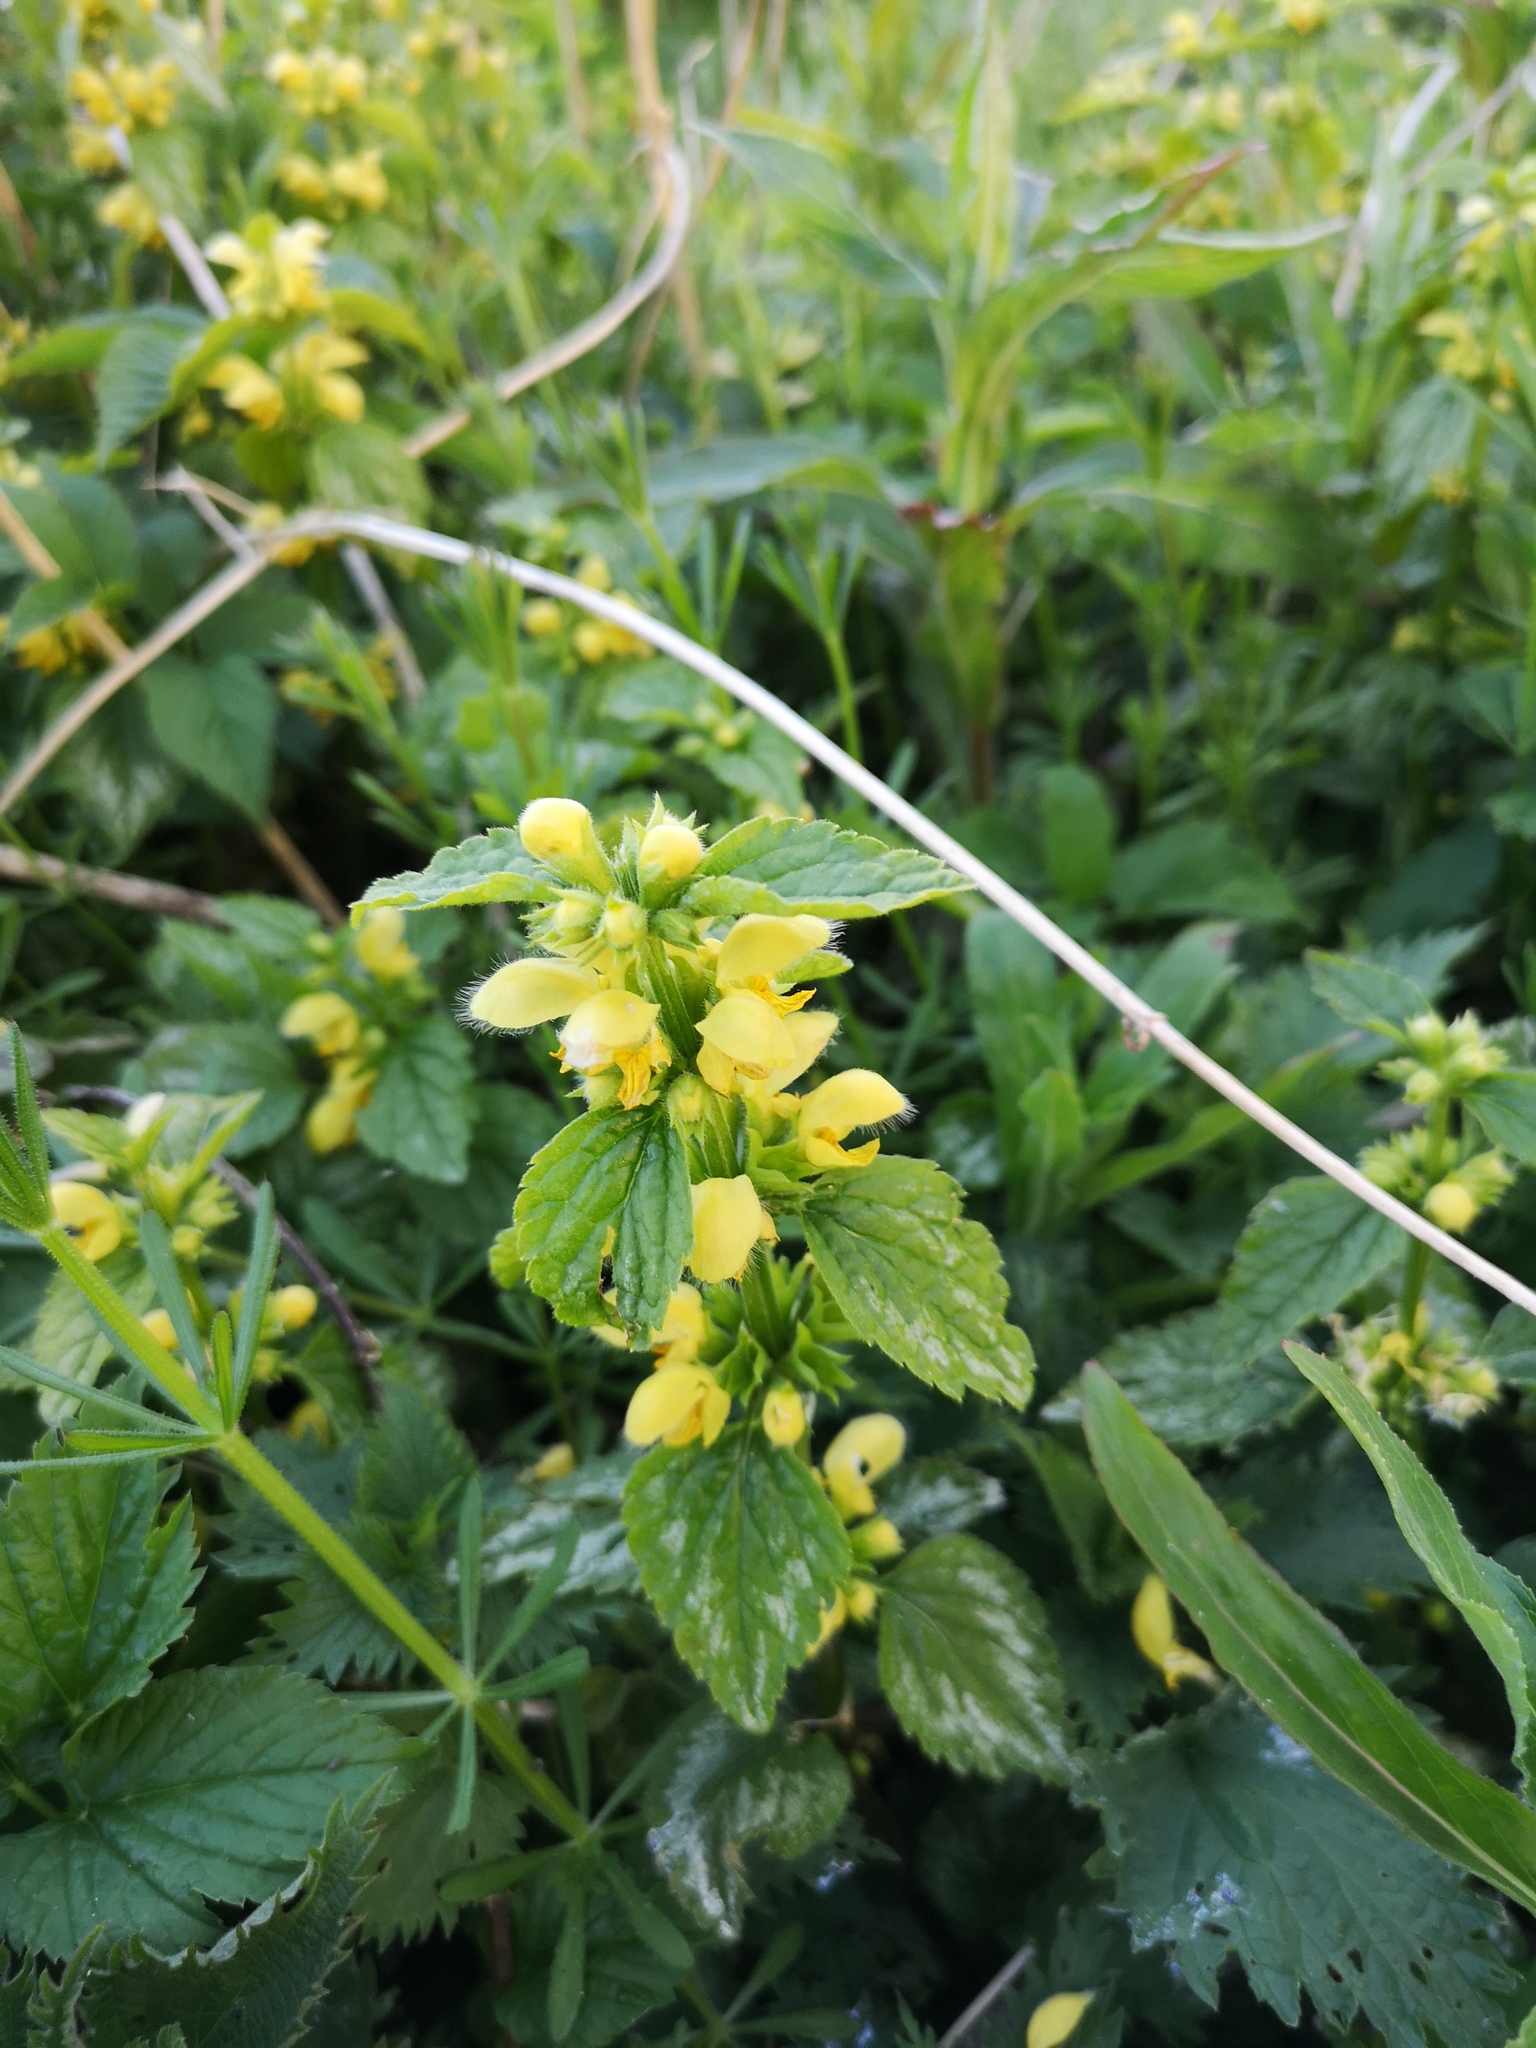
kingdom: Plantae
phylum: Tracheophyta
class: Magnoliopsida
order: Lamiales
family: Lamiaceae
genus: Lamium
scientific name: Lamium galeobdolon
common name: Yellow archangel
